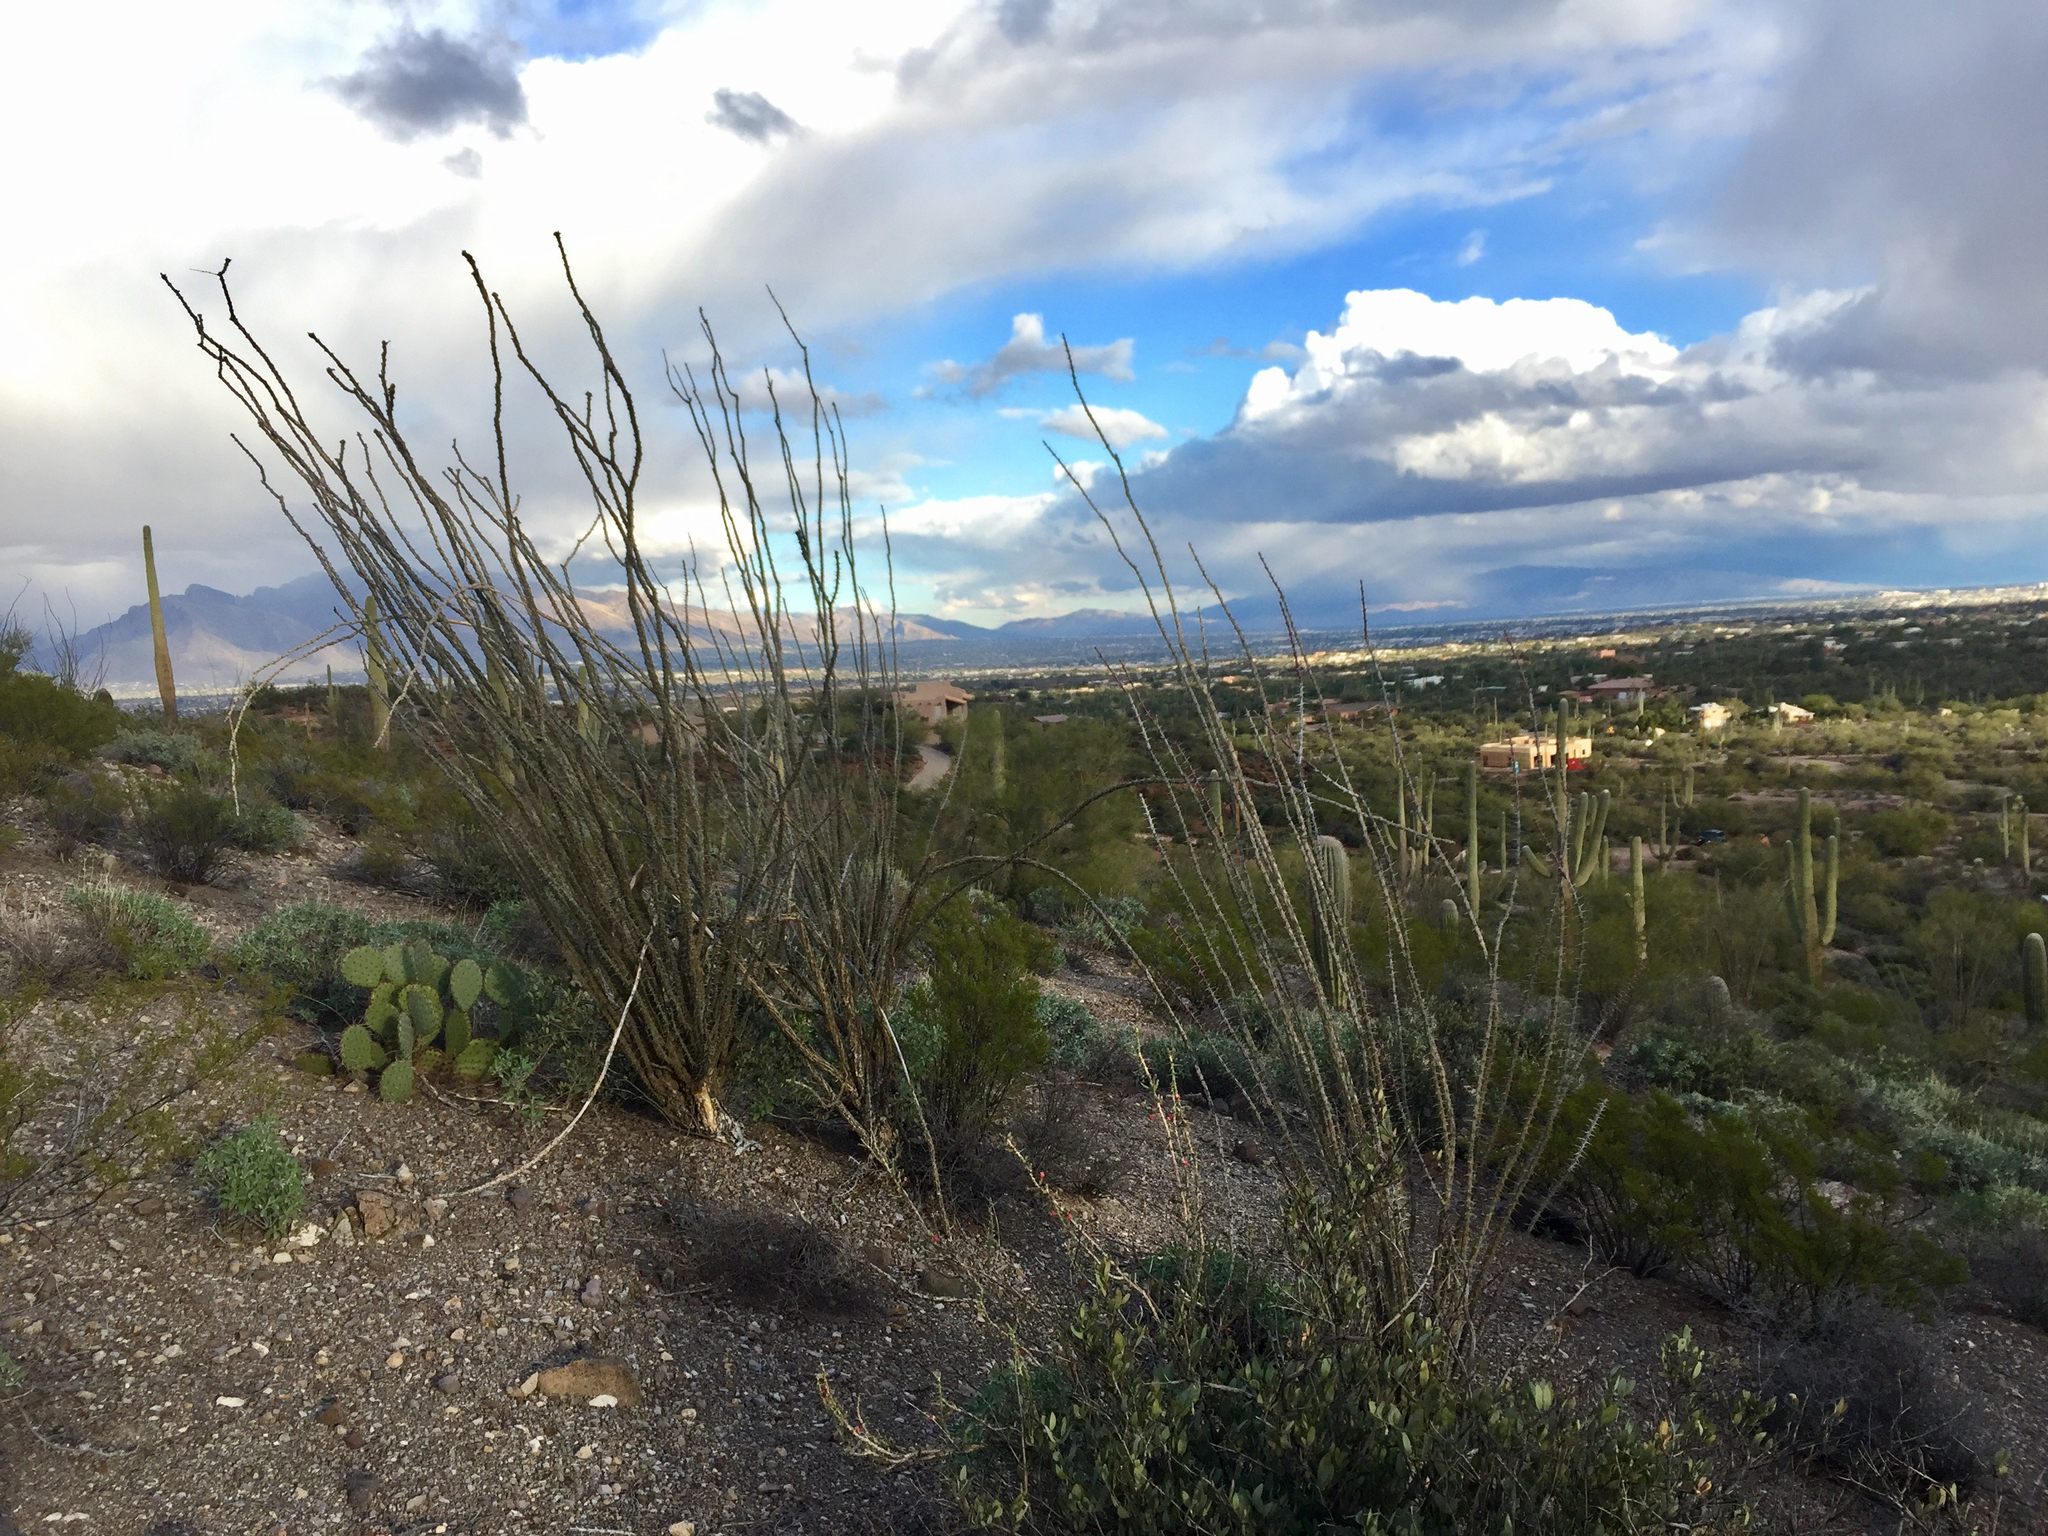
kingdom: Plantae
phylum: Tracheophyta
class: Magnoliopsida
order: Ericales
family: Fouquieriaceae
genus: Fouquieria
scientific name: Fouquieria splendens
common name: Vine-cactus
